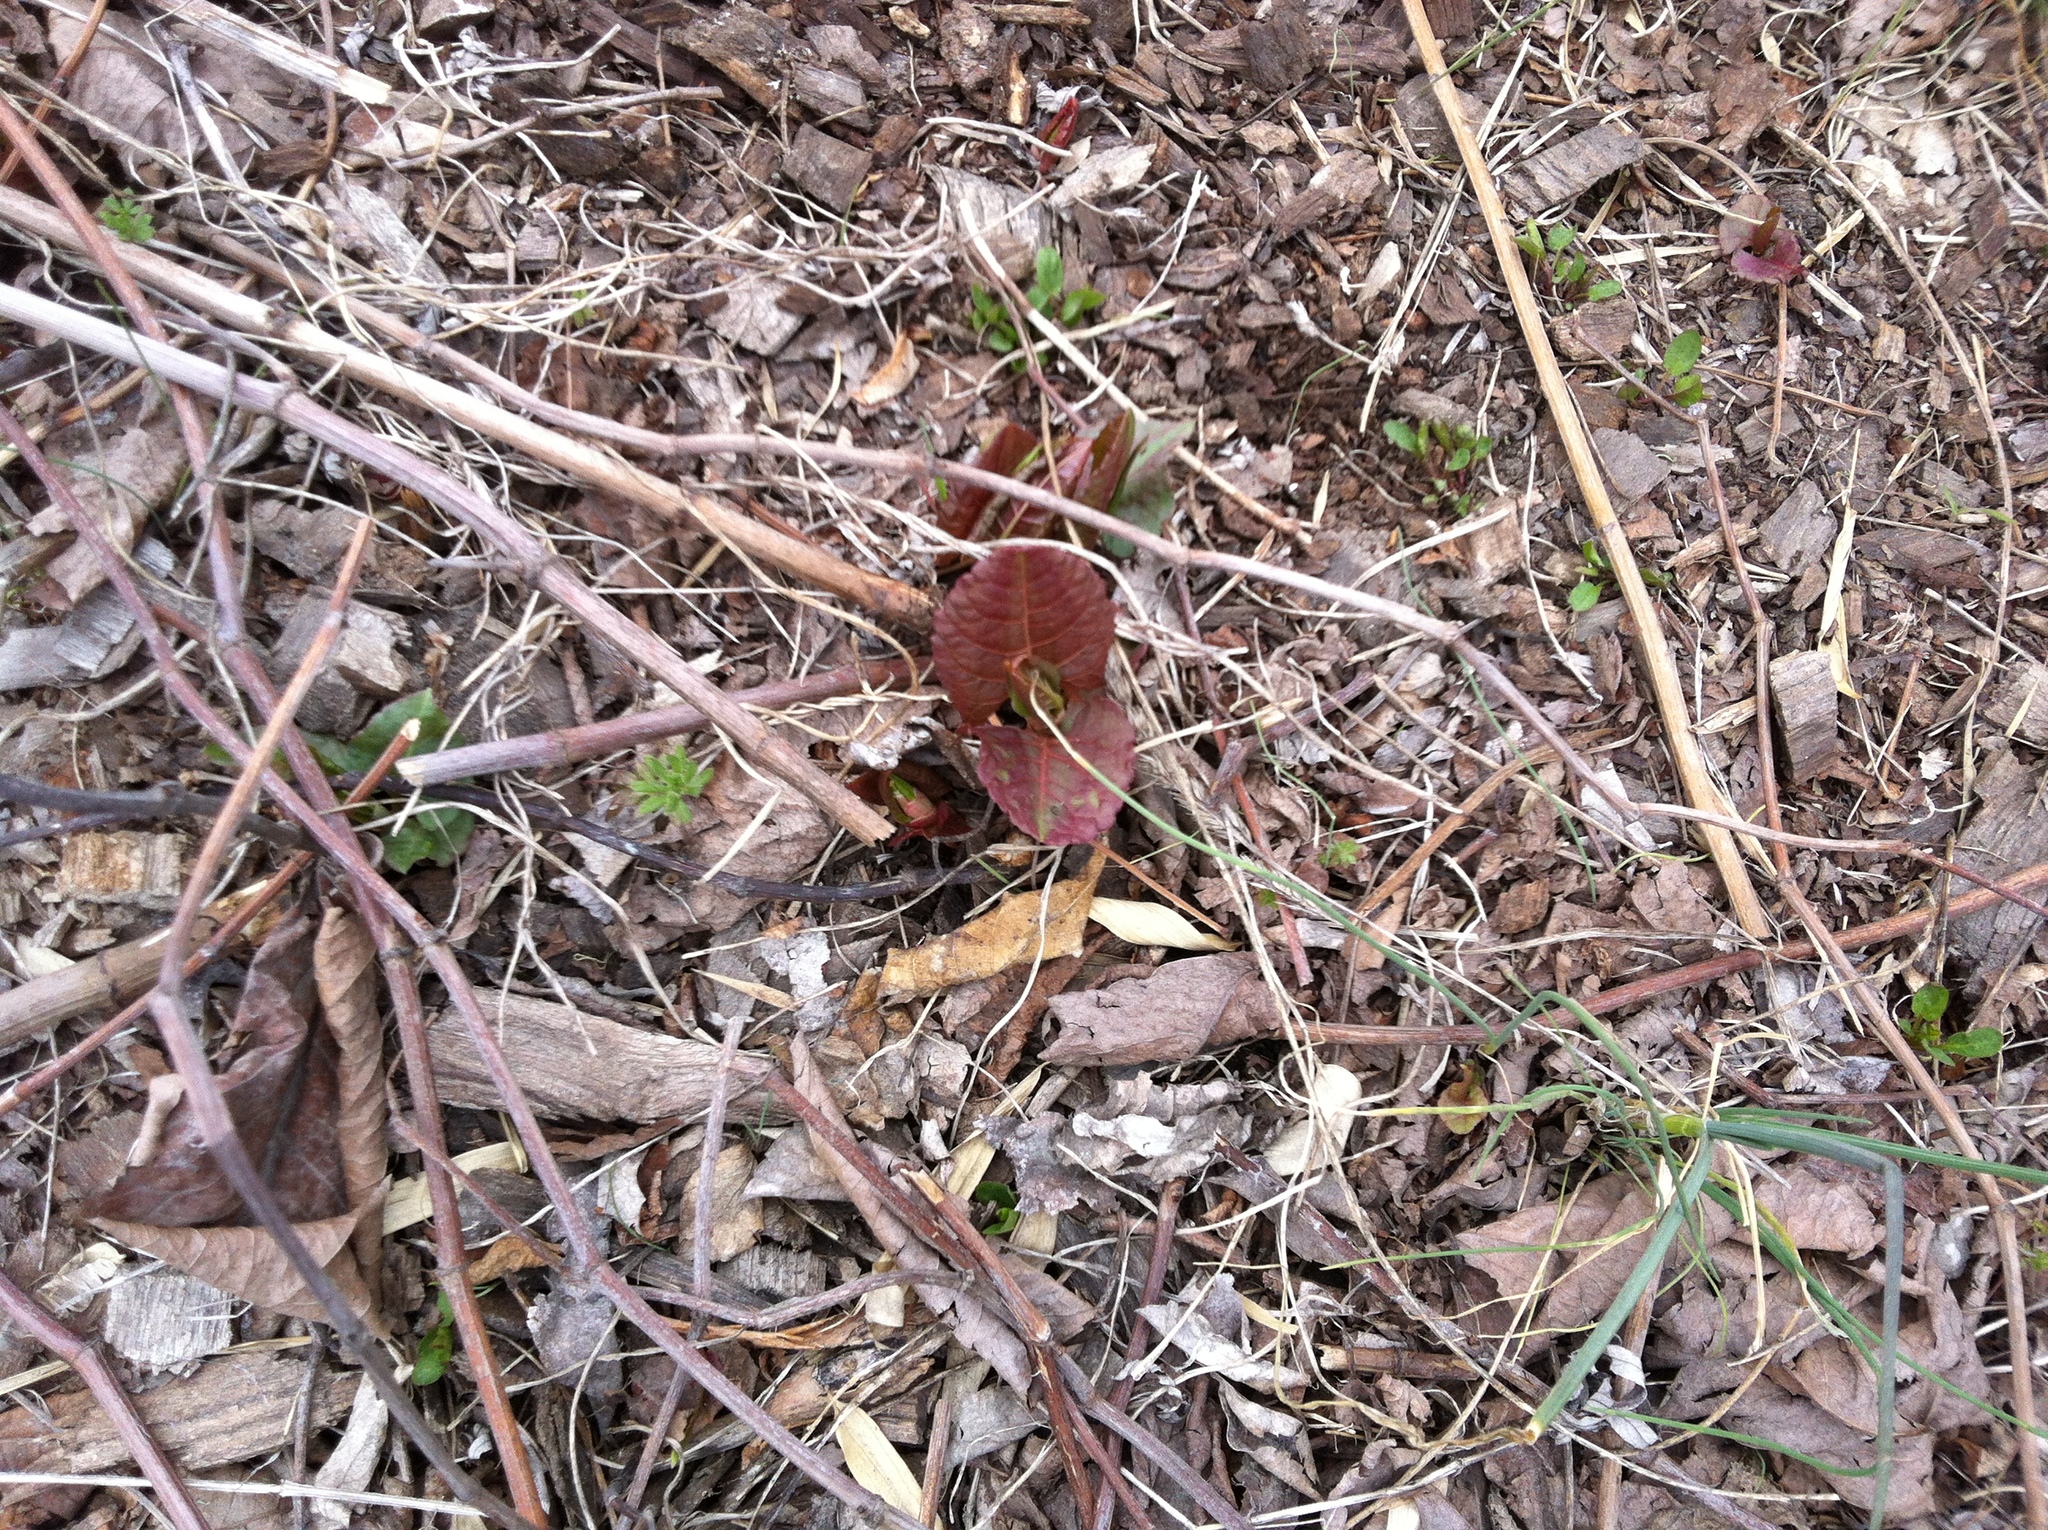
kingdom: Plantae
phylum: Tracheophyta
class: Magnoliopsida
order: Caryophyllales
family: Polygonaceae
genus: Reynoutria
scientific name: Reynoutria japonica
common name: Japanese knotweed
